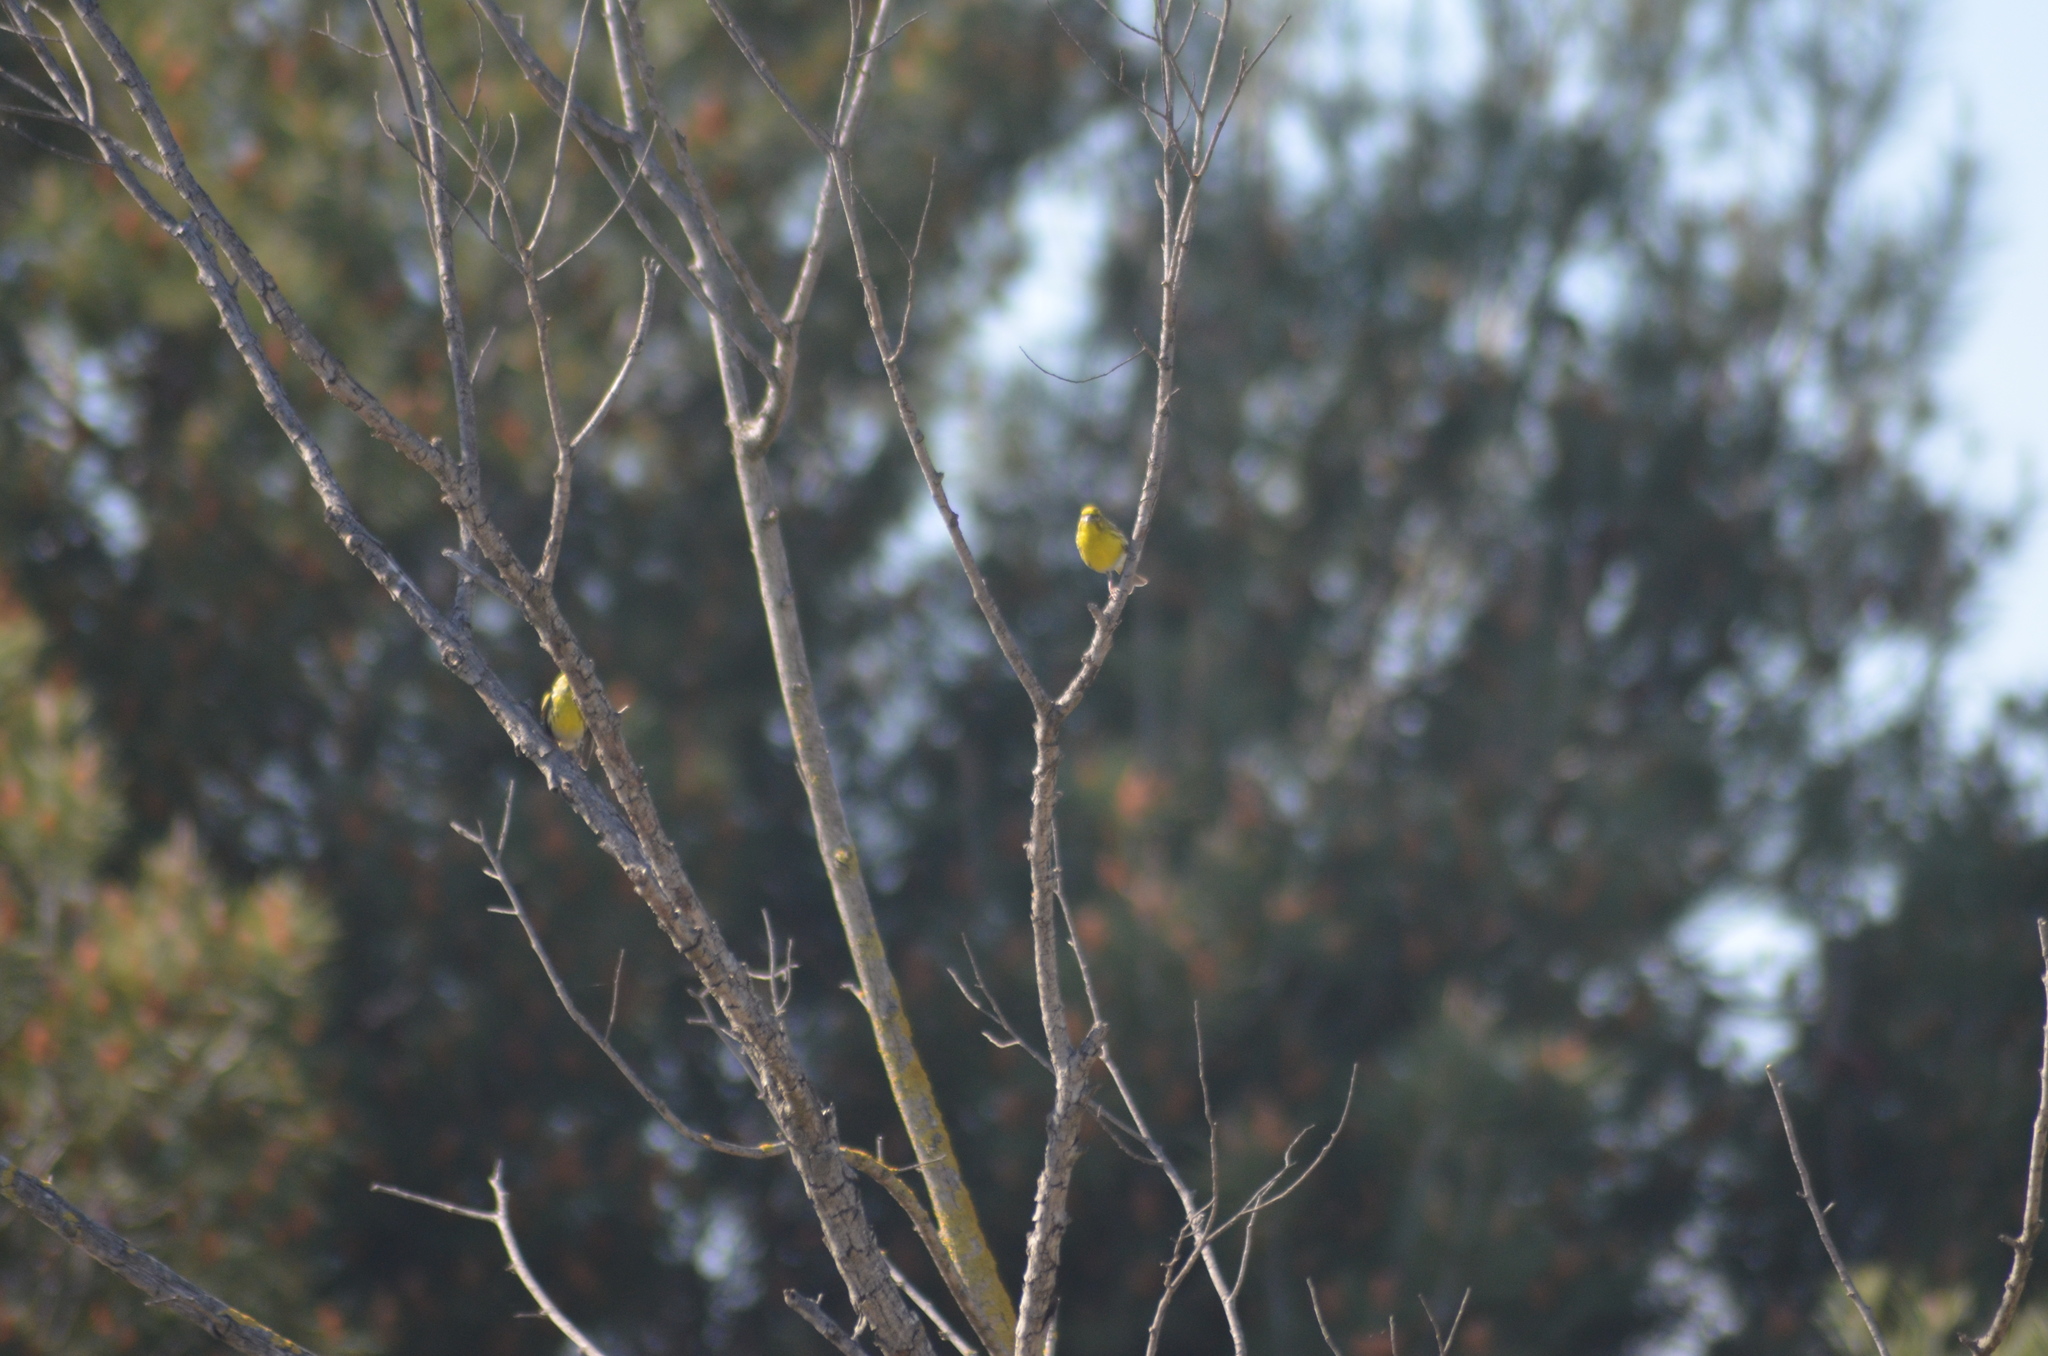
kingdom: Animalia
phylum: Chordata
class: Aves
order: Passeriformes
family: Fringillidae
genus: Serinus
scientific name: Serinus serinus
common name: European serin
